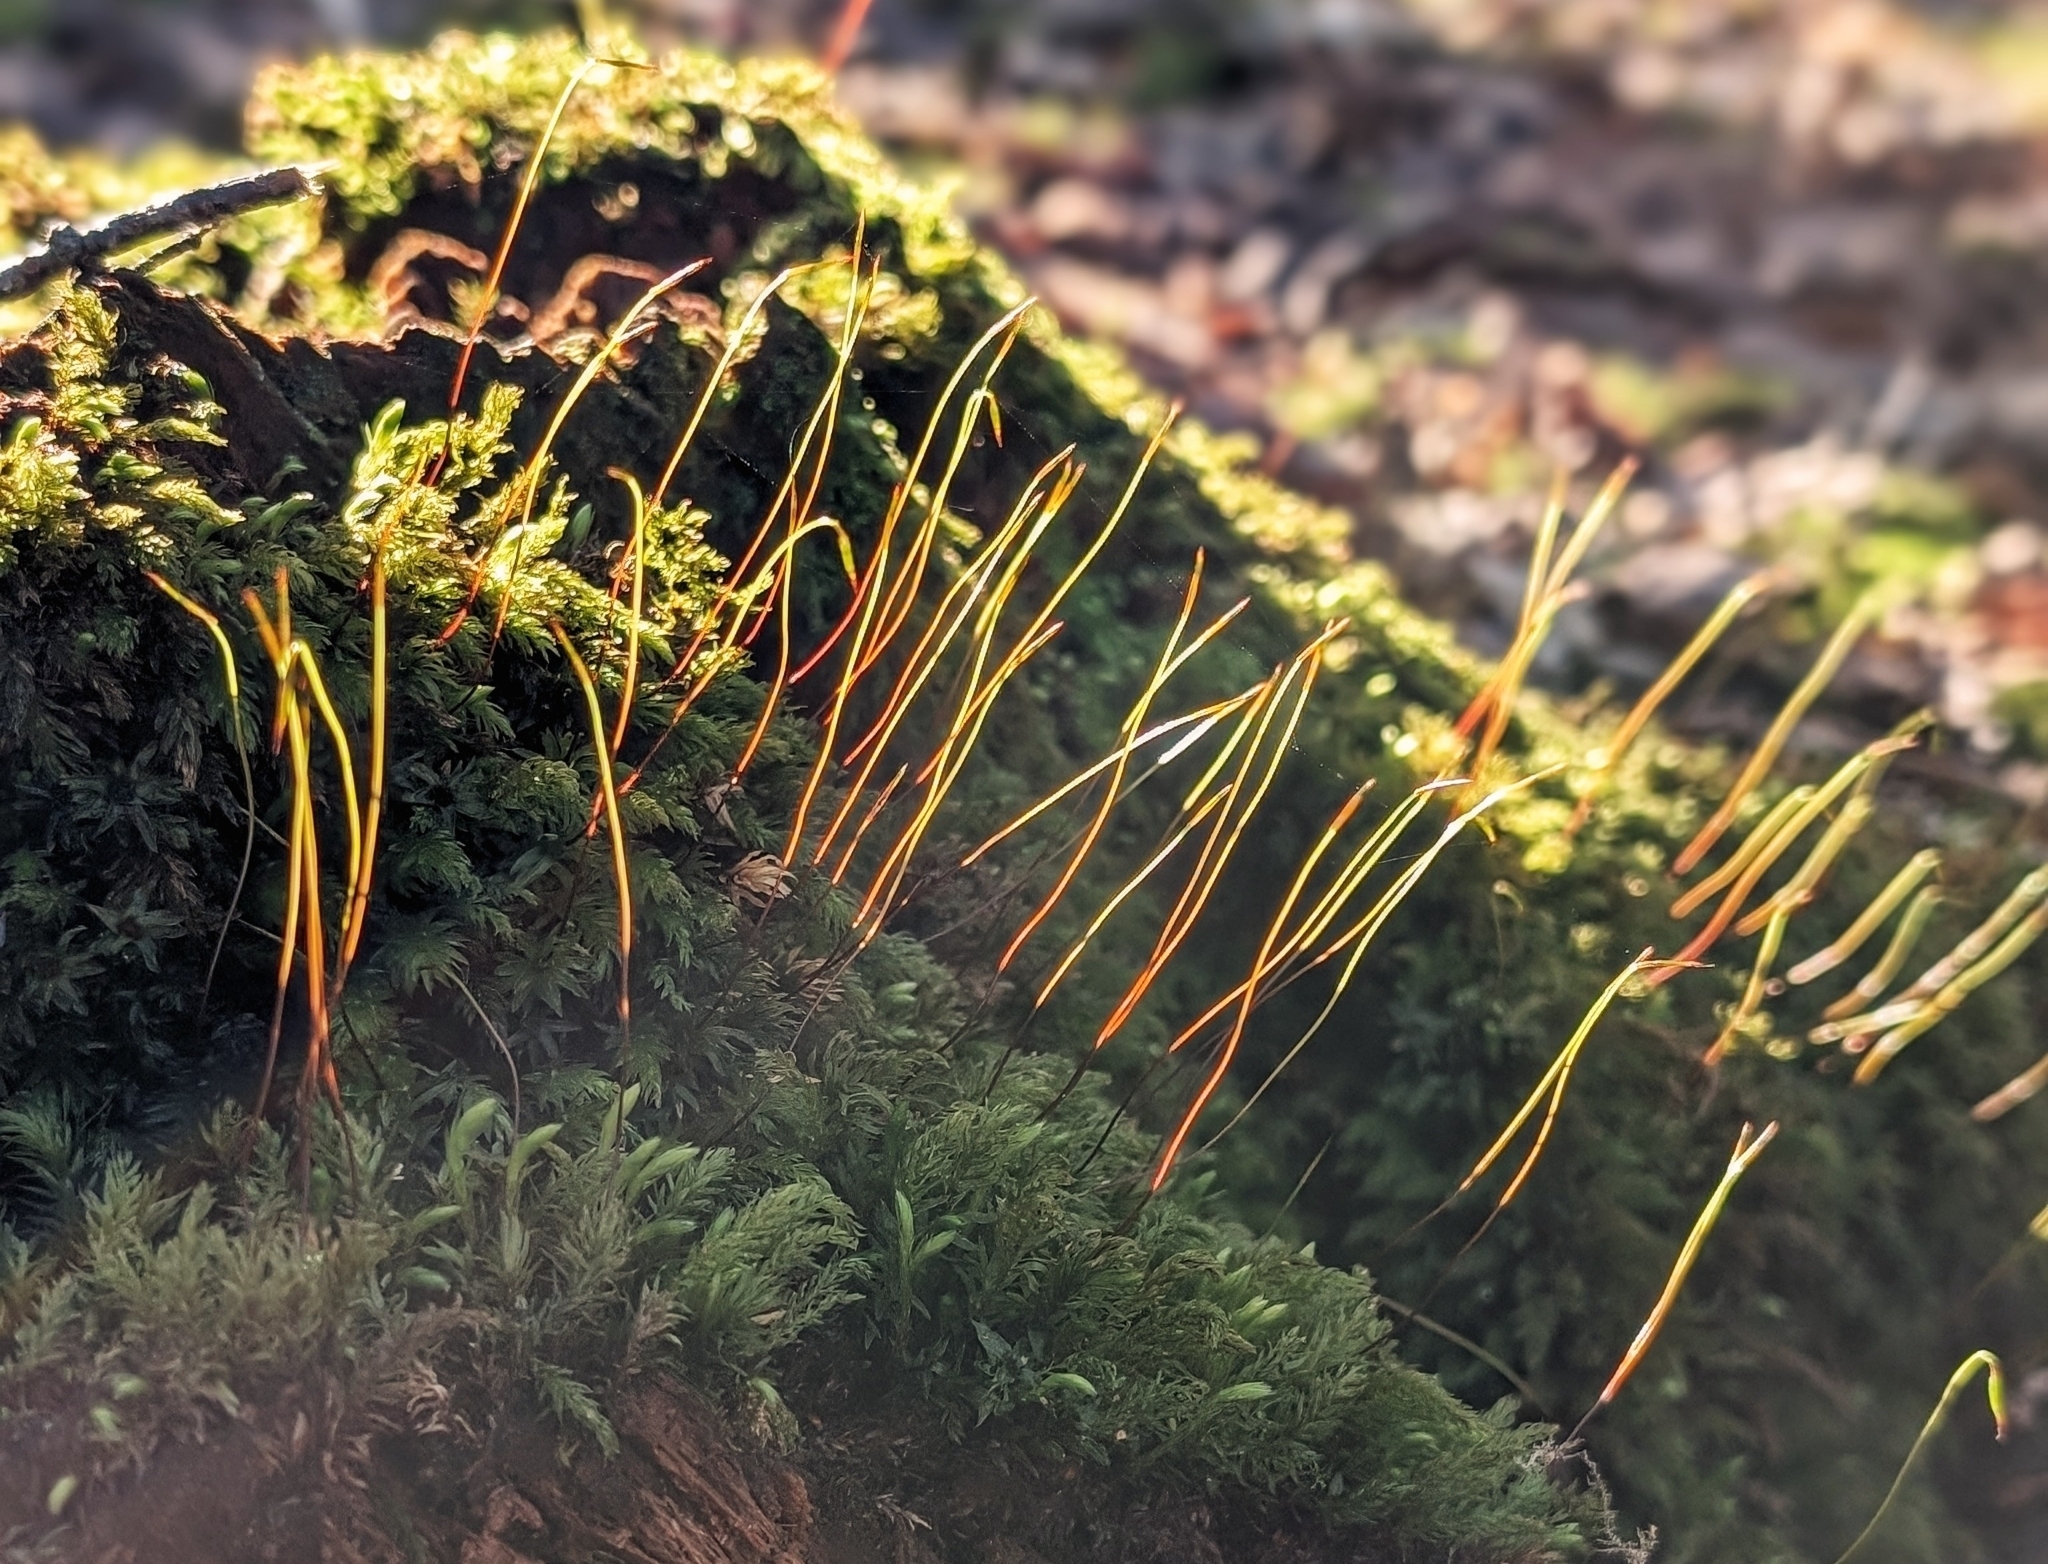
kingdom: Plantae
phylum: Bryophyta
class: Bryopsida
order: Bryales
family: Mniaceae
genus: Mnium
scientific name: Mnium hornum
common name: Swan's-neck leafy moss
